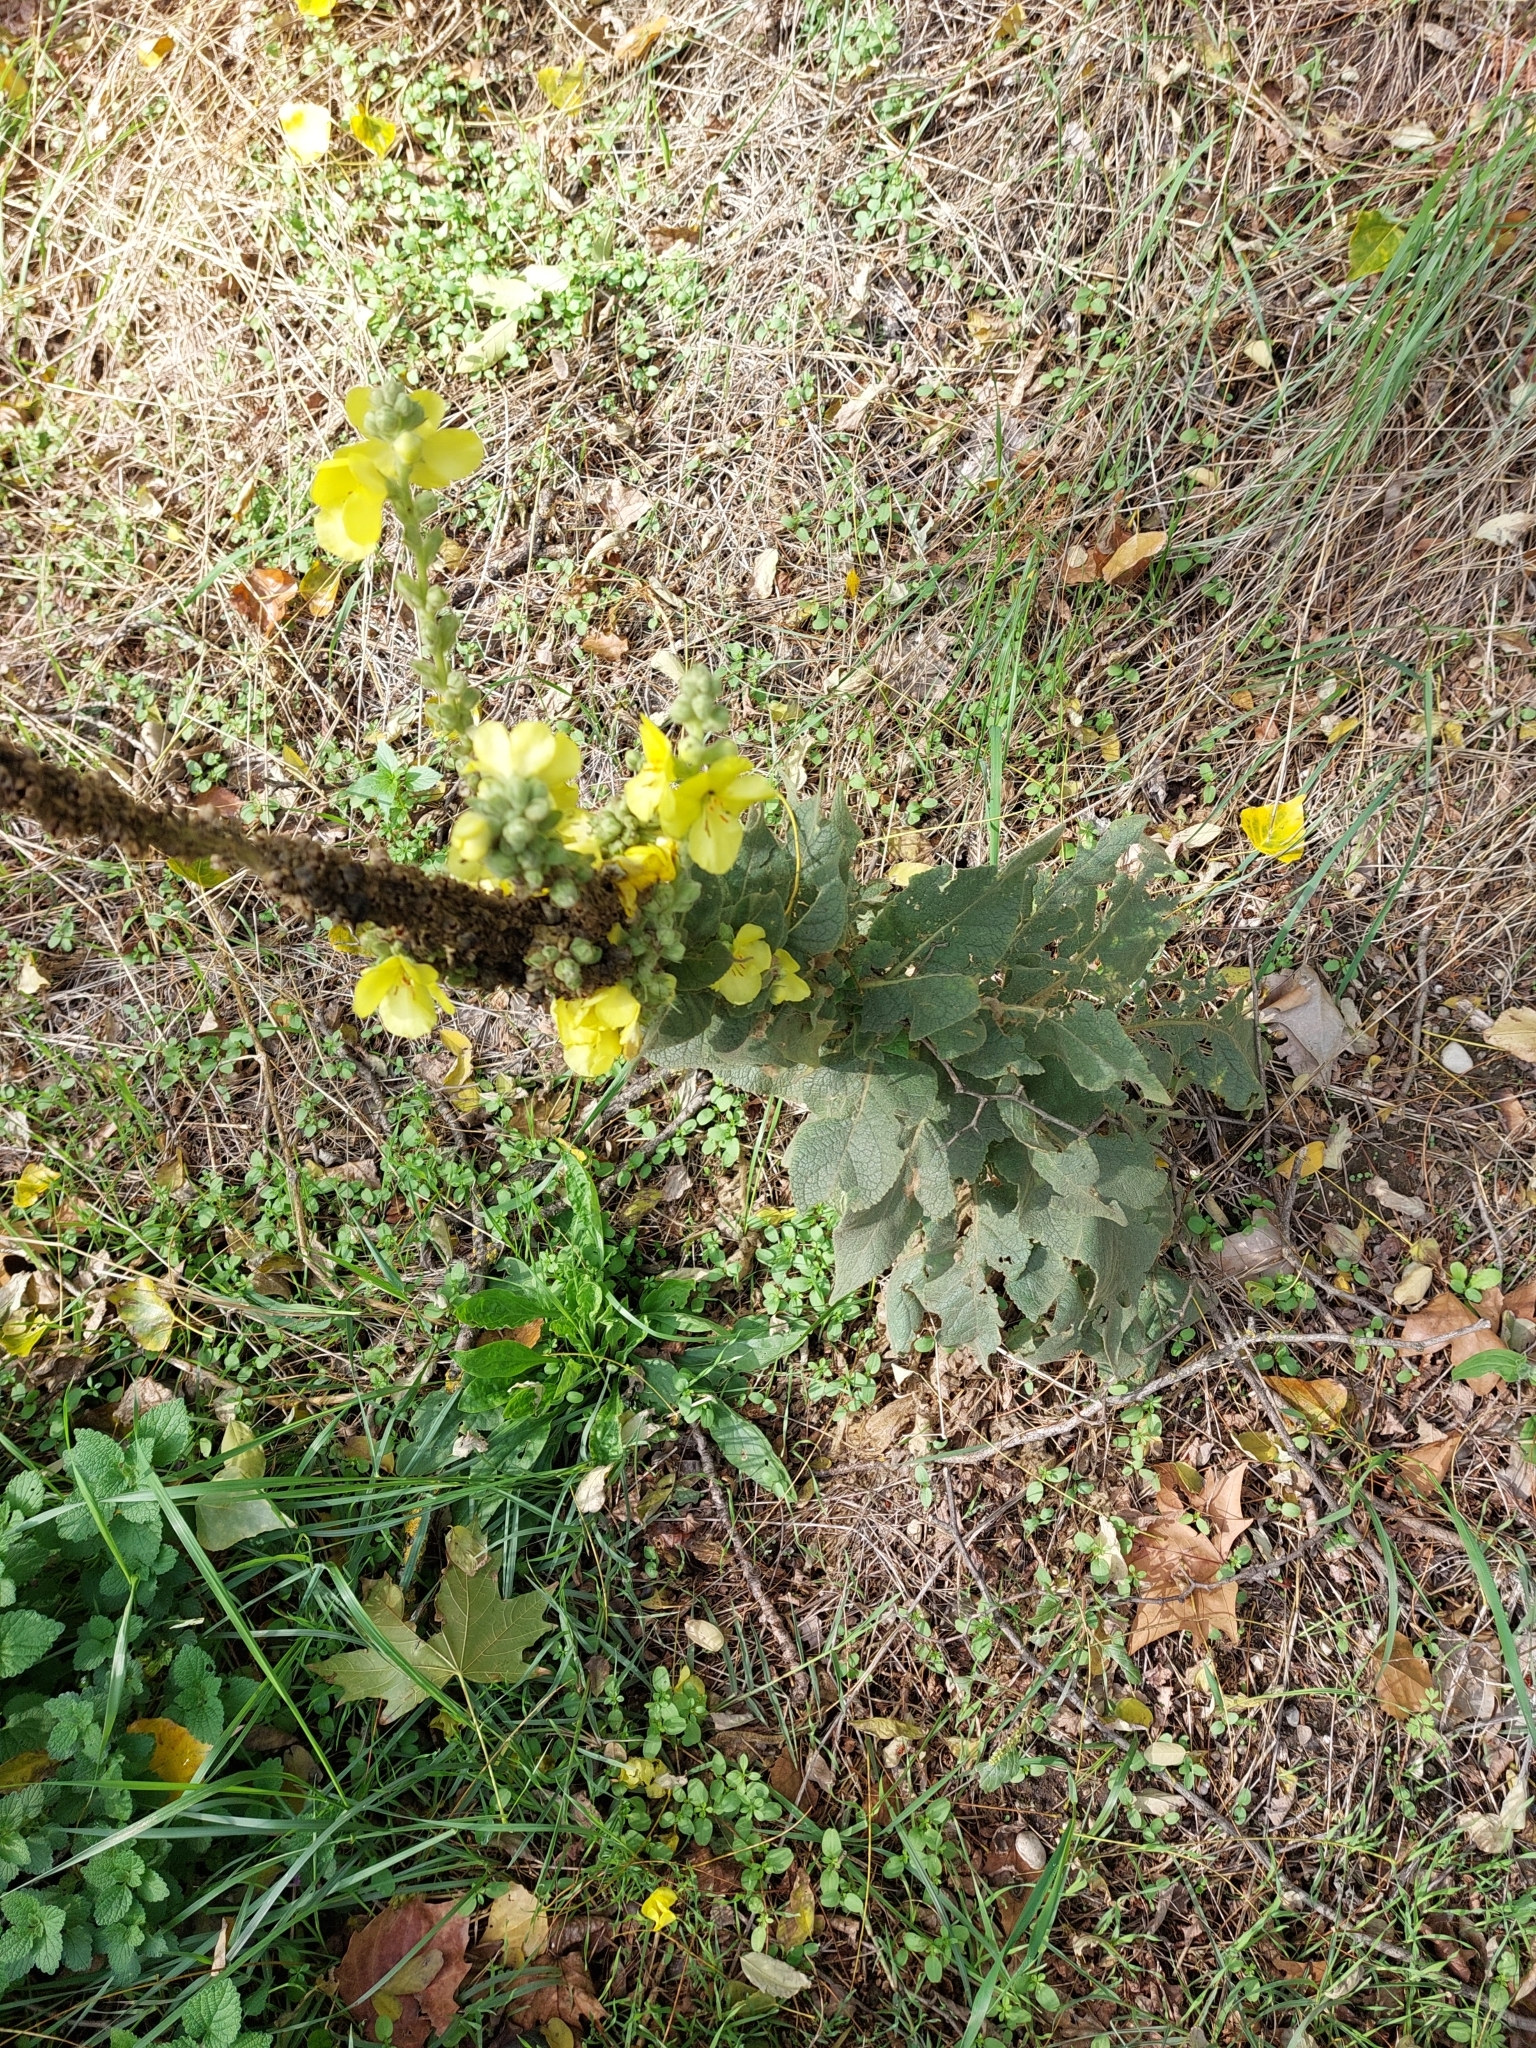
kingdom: Plantae
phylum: Tracheophyta
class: Magnoliopsida
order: Lamiales
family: Scrophulariaceae
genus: Verbascum
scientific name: Verbascum densiflorum
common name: Dense-flowered mullein
